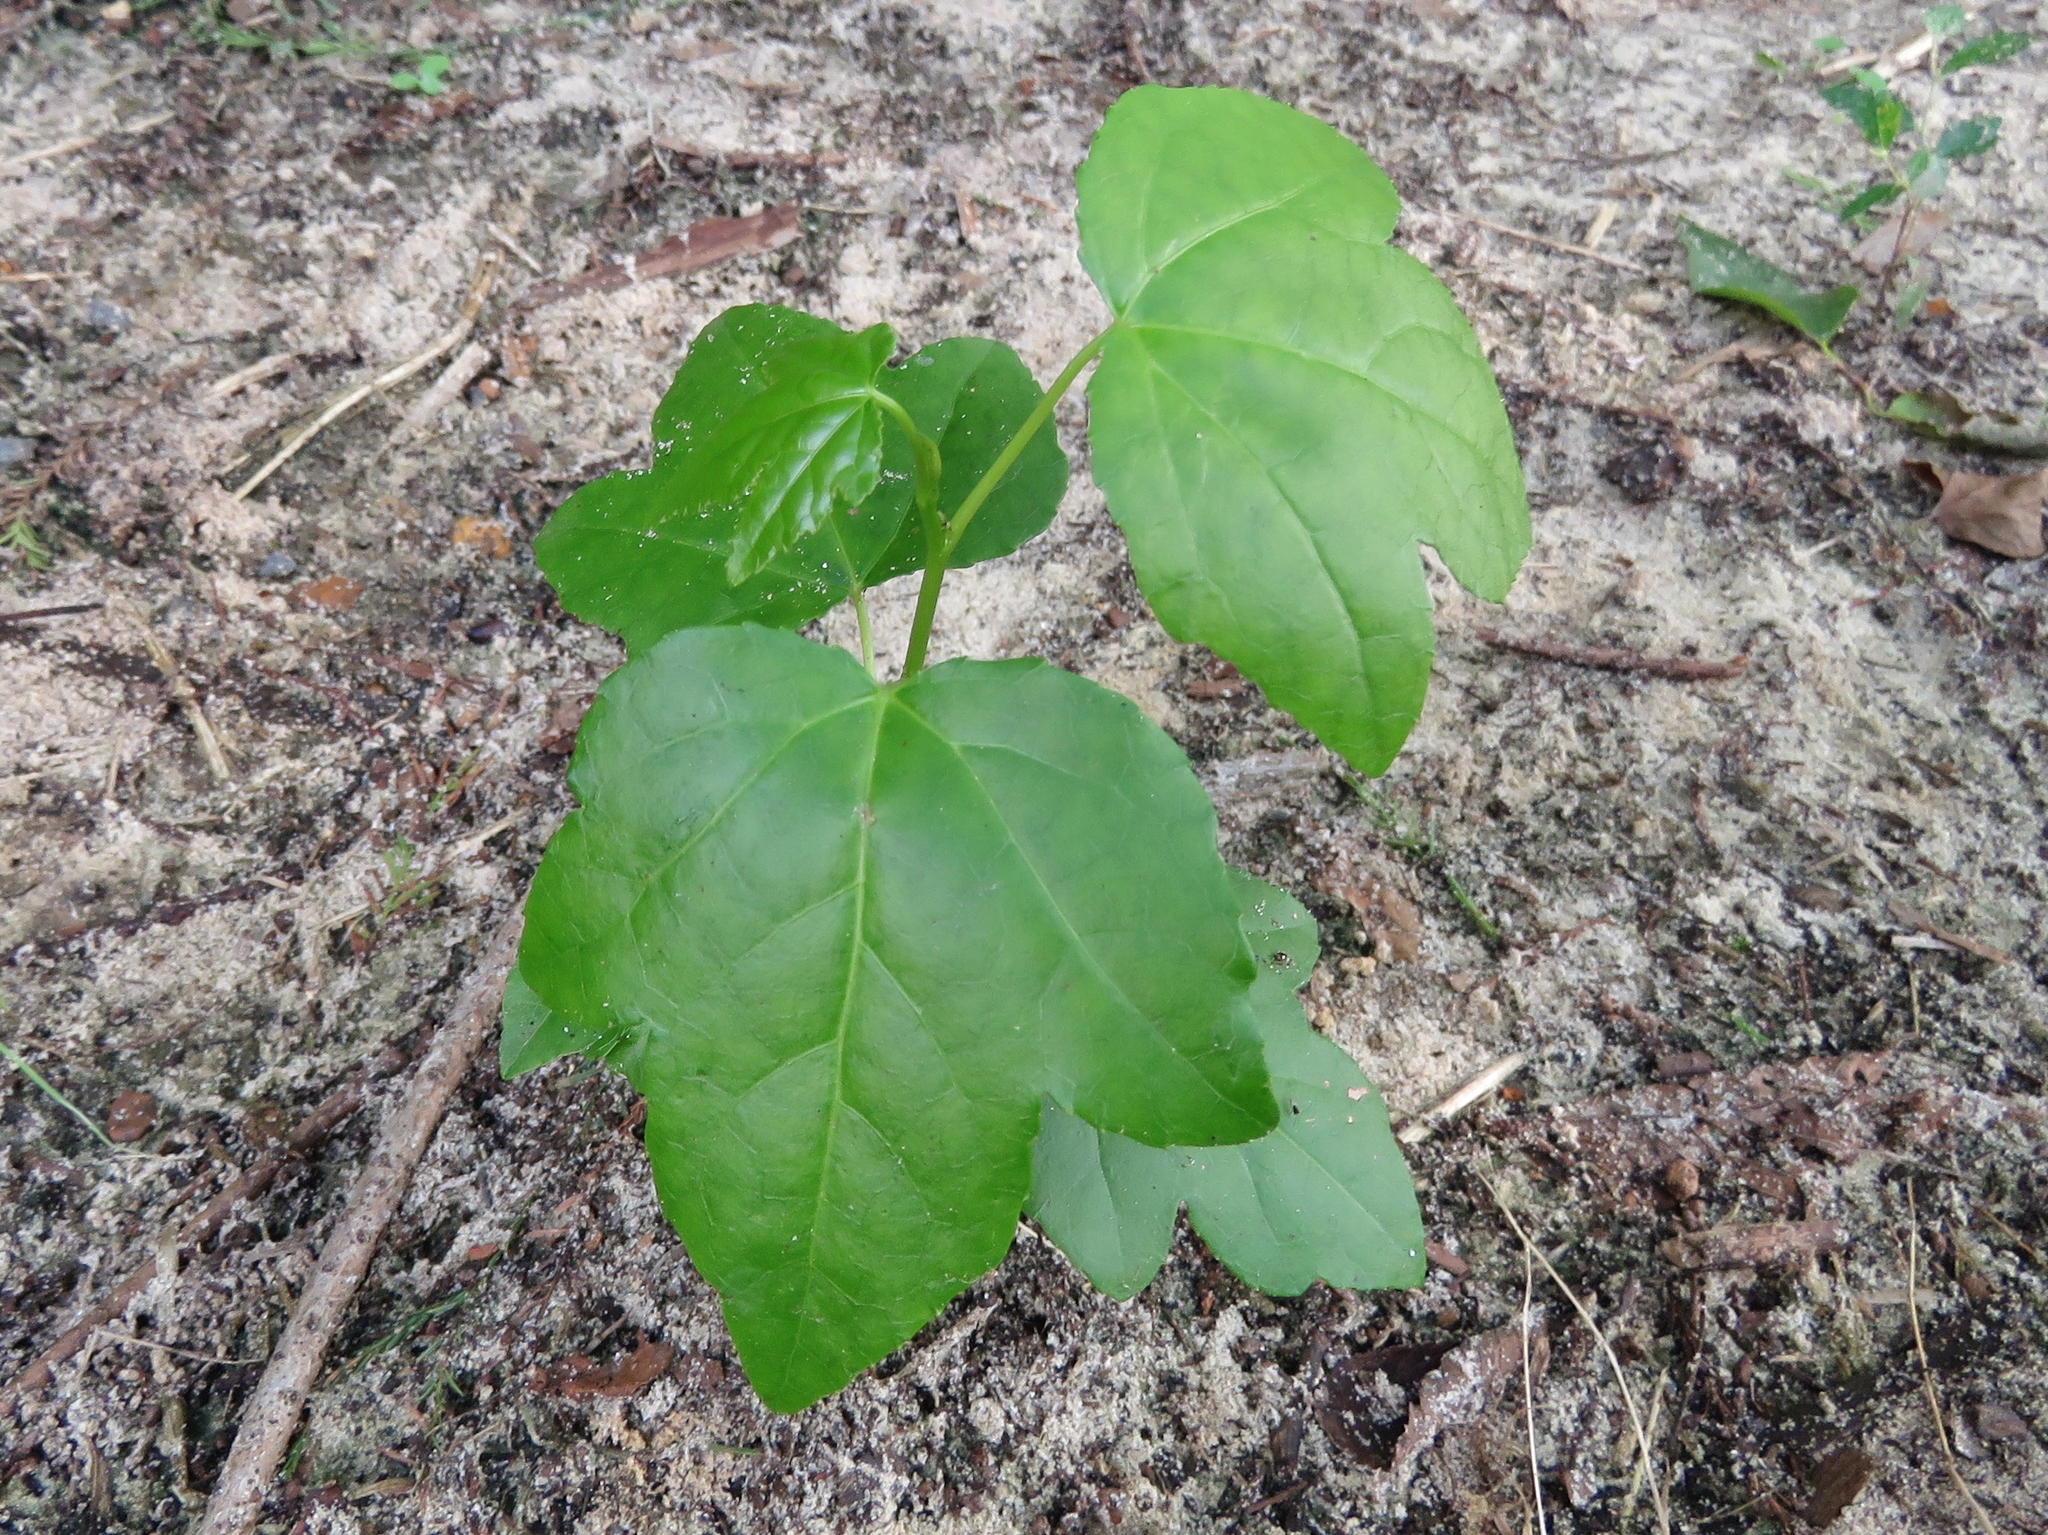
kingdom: Plantae
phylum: Tracheophyta
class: Magnoliopsida
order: Saxifragales
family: Altingiaceae
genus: Liquidambar
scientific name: Liquidambar styraciflua
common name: Sweet gum
